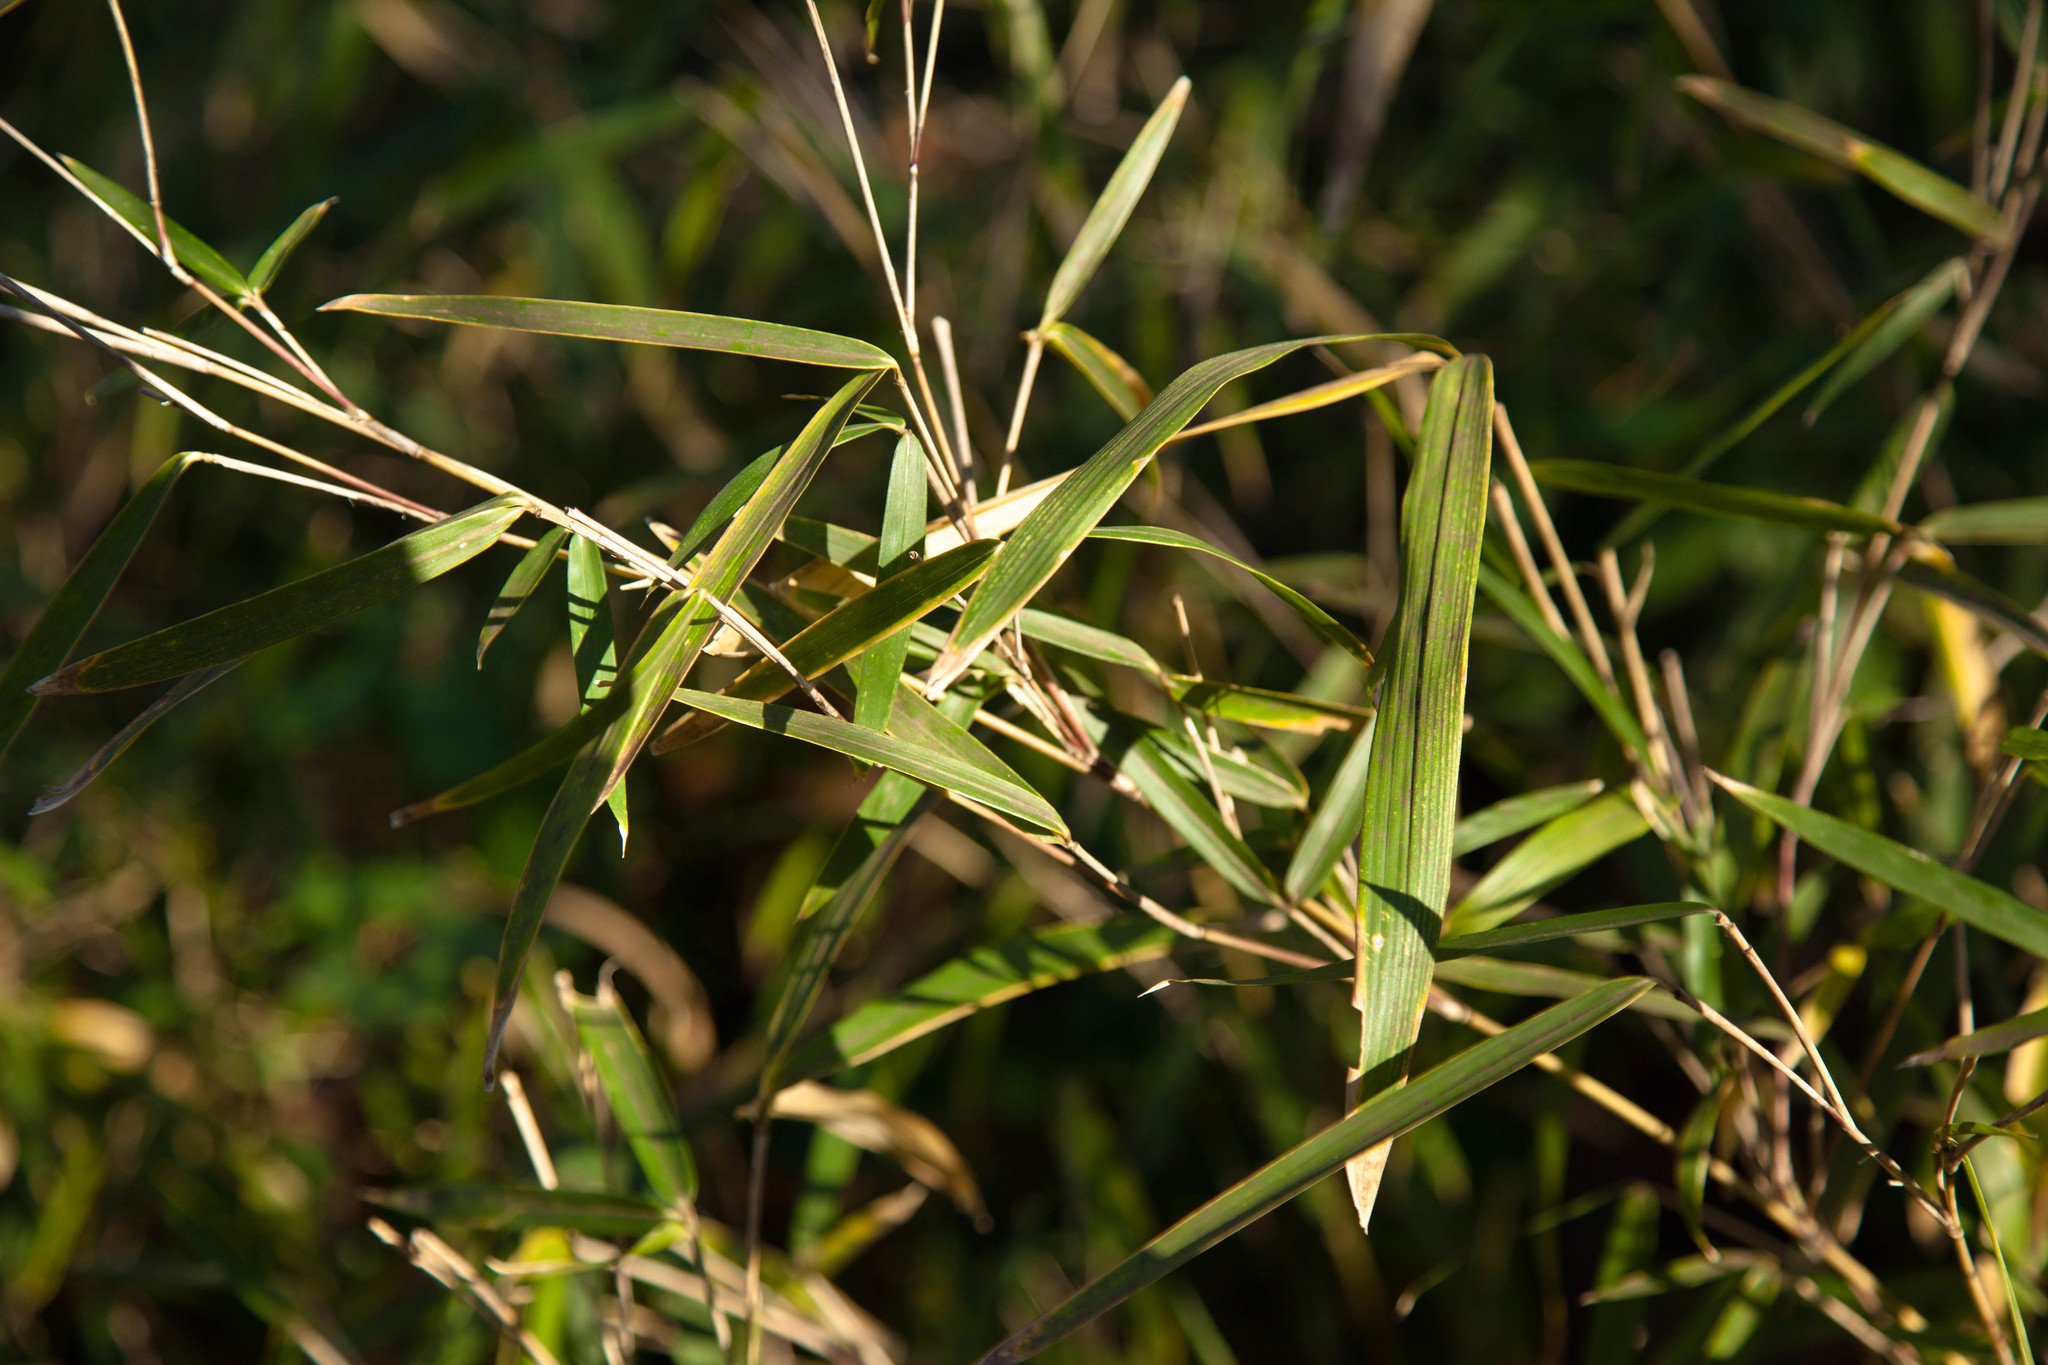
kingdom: Plantae
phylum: Tracheophyta
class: Liliopsida
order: Poales
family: Poaceae
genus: Arundinaria
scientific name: Arundinaria gigantea
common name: Giant cane
